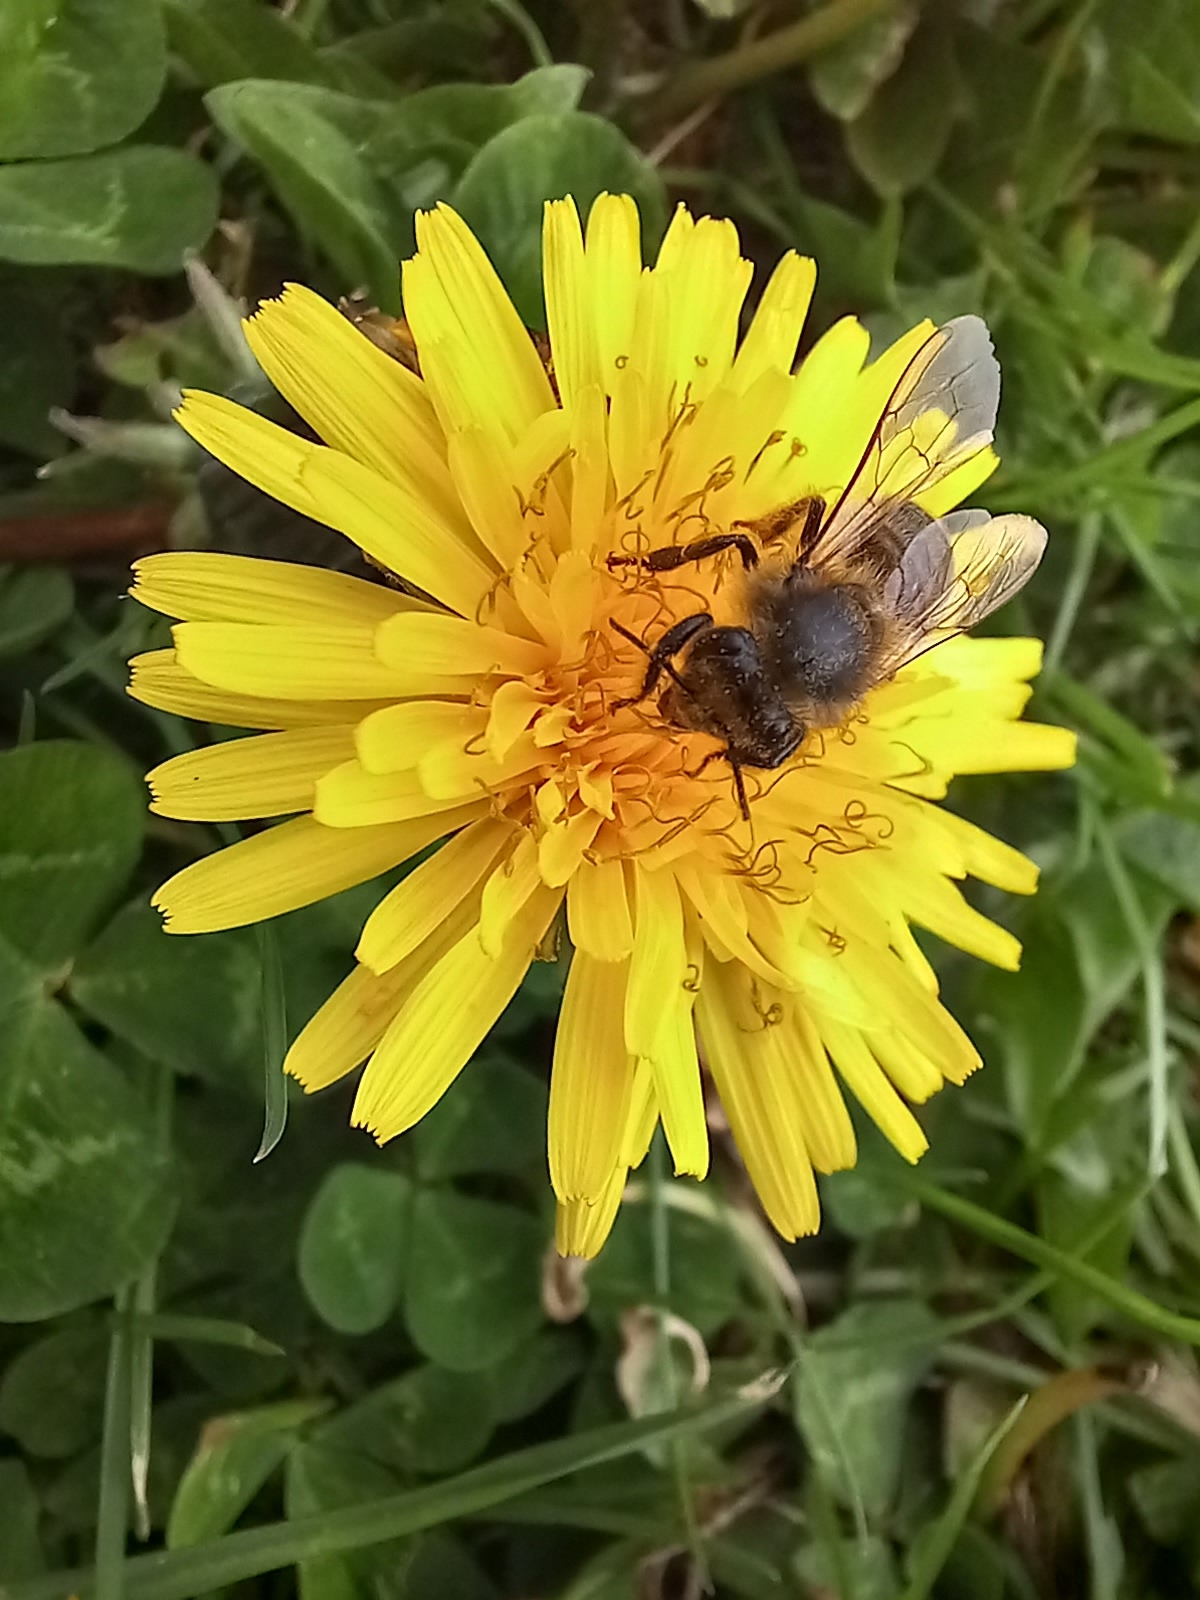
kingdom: Animalia
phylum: Arthropoda
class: Insecta
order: Hymenoptera
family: Apidae
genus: Apis
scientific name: Apis mellifera
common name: Honey bee
